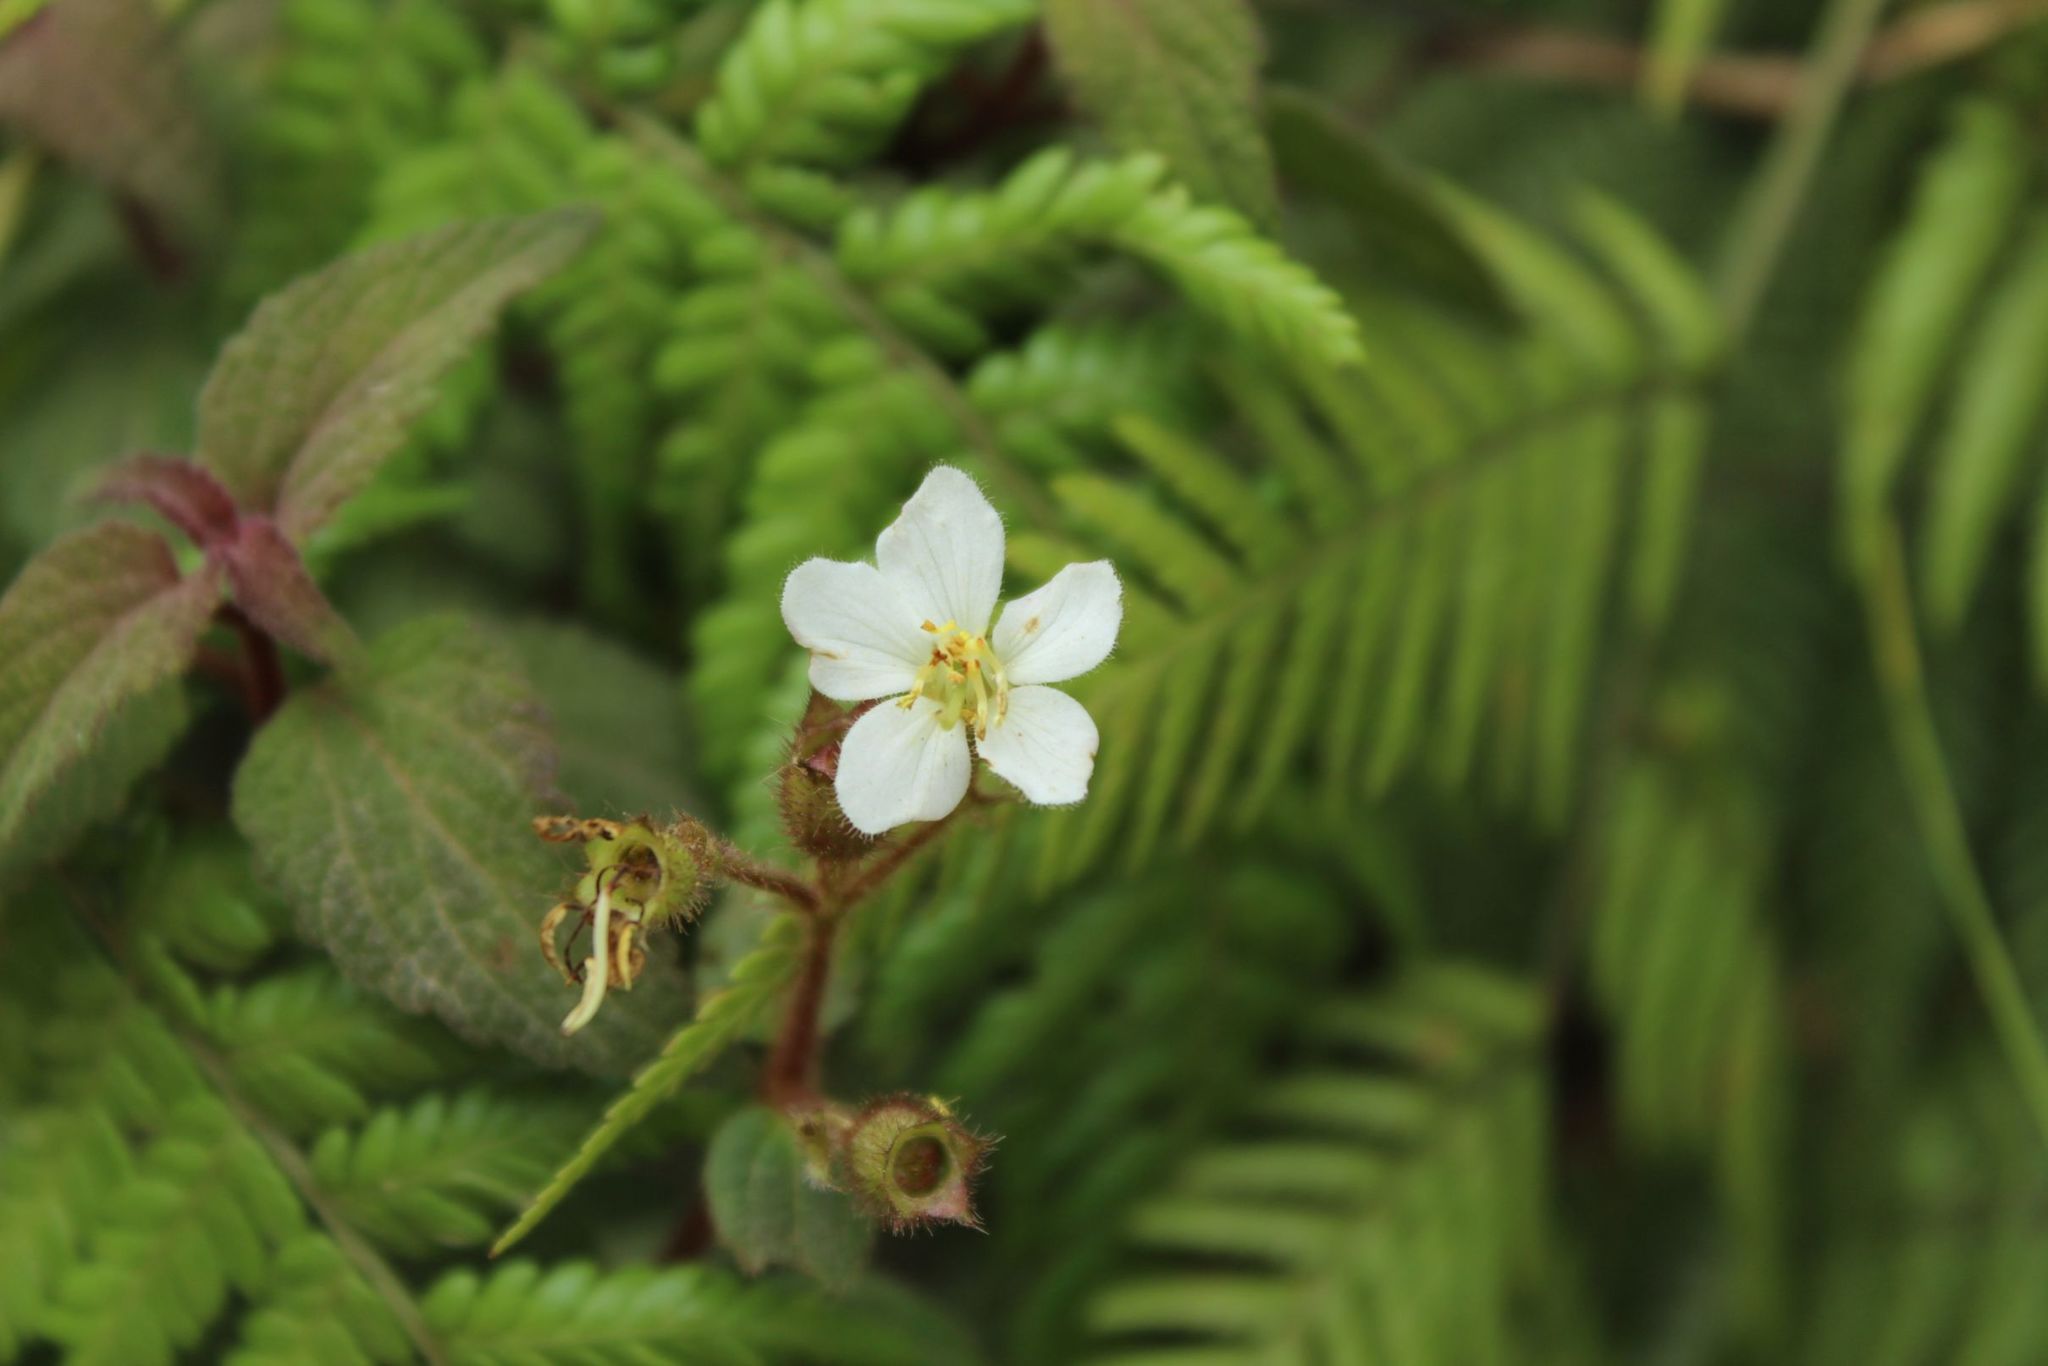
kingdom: Plantae
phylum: Tracheophyta
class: Magnoliopsida
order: Myrtales
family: Melastomataceae
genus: Chaetogastra
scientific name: Chaetogastra ciliaris
